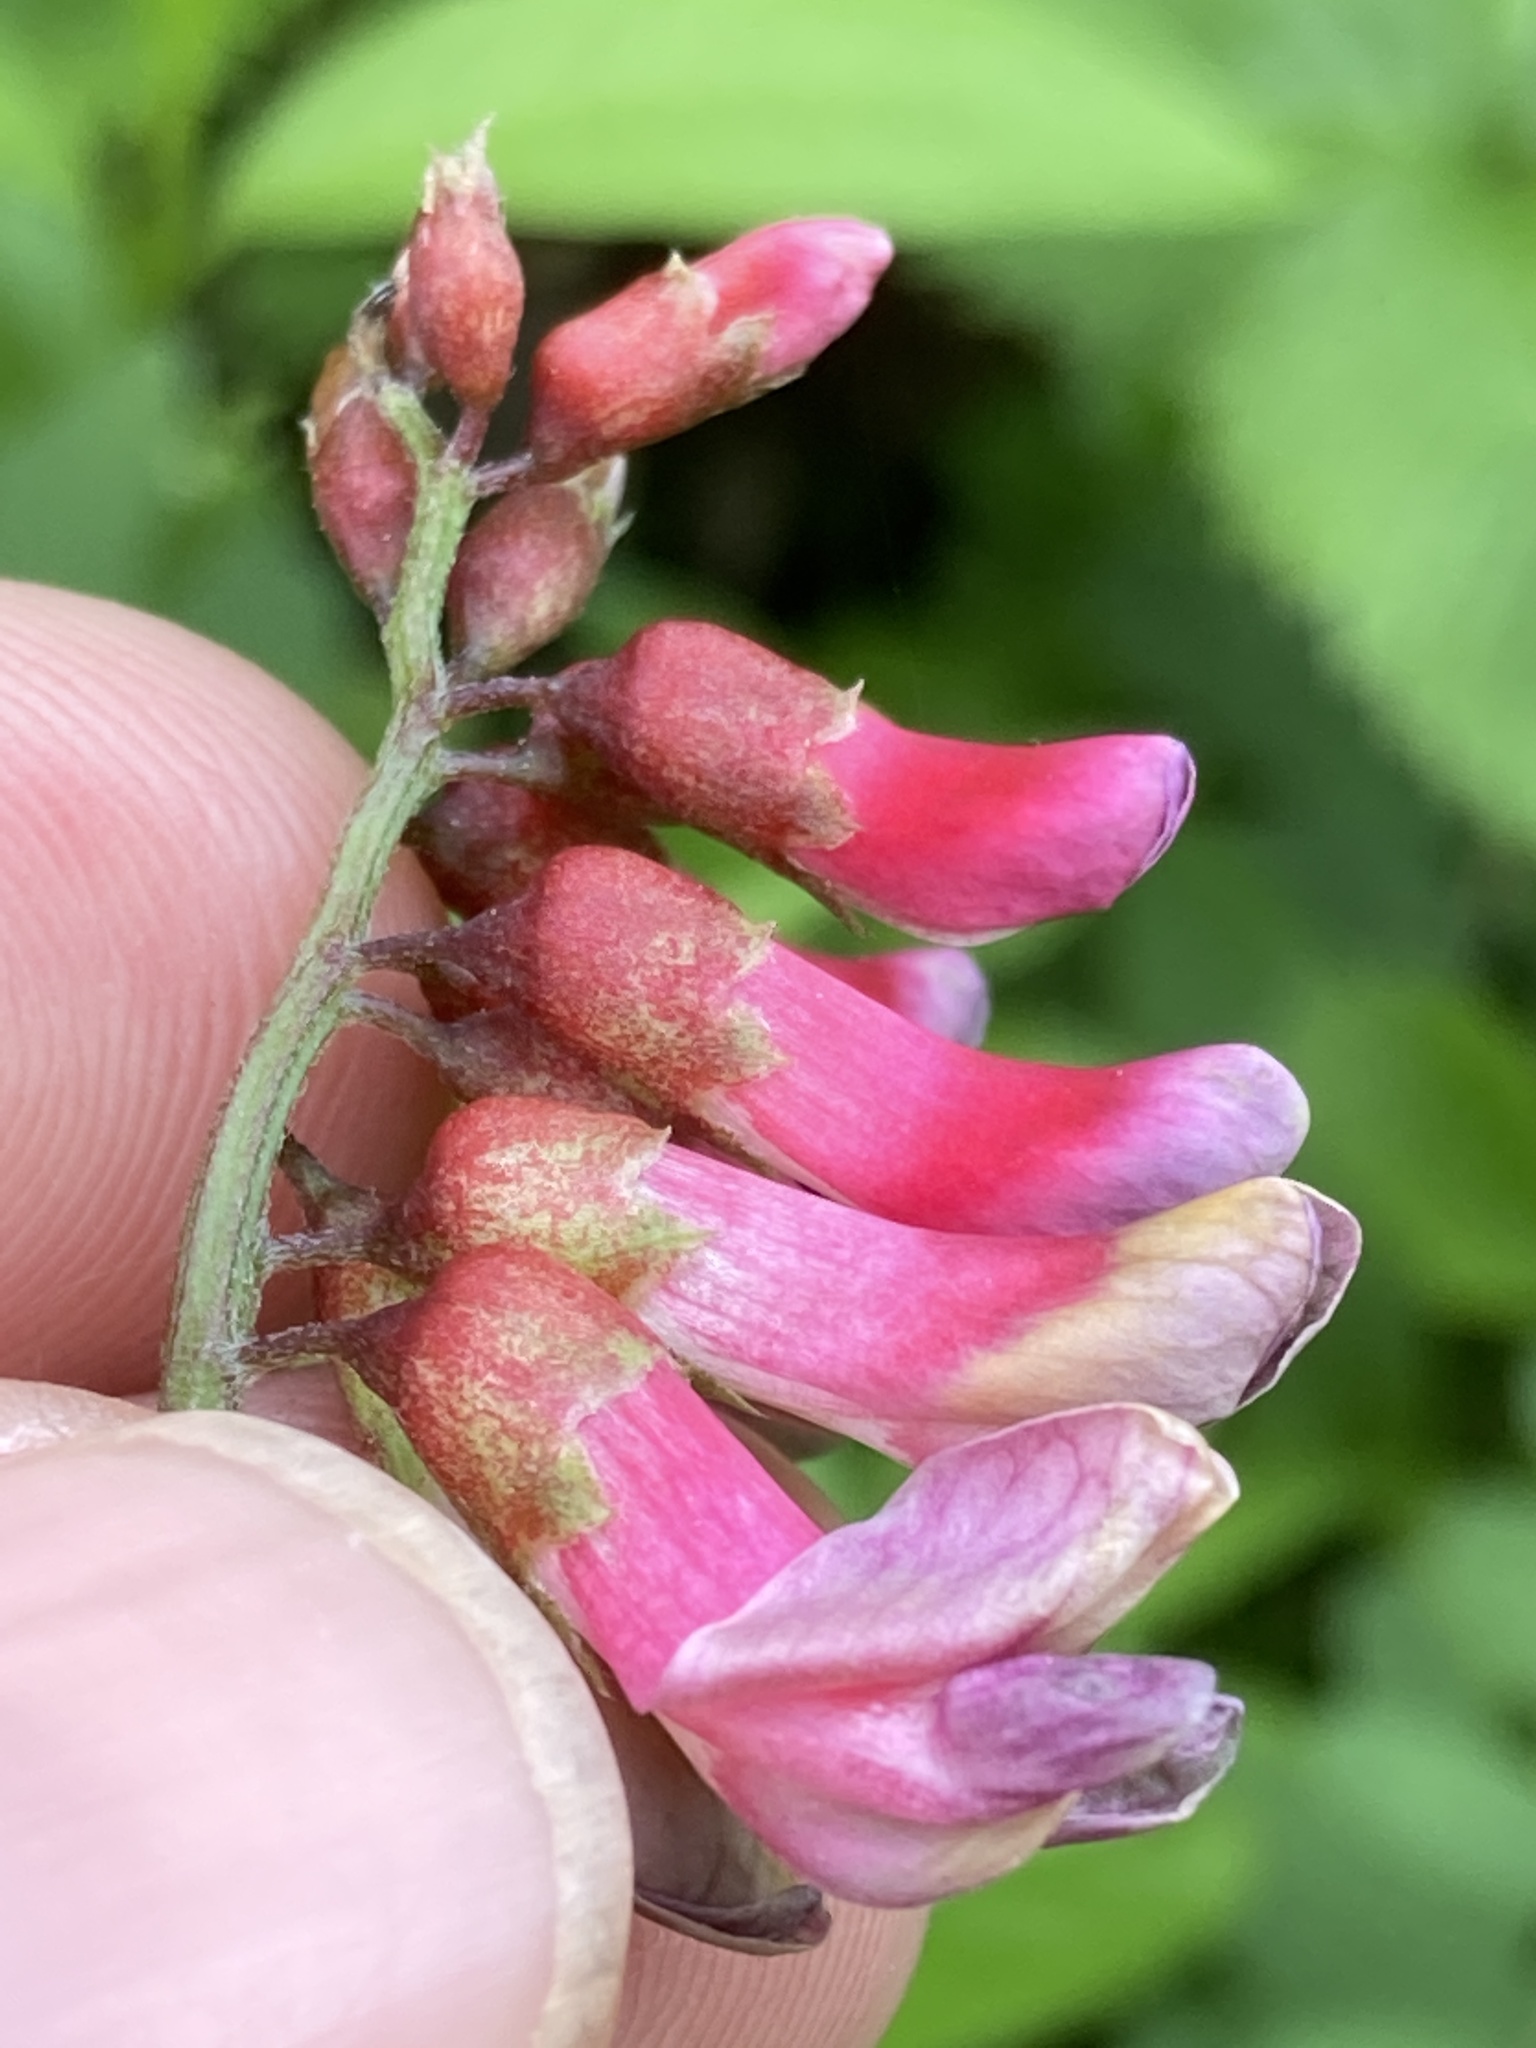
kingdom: Plantae
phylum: Tracheophyta
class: Magnoliopsida
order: Fabales
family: Fabaceae
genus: Vicia
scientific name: Vicia
